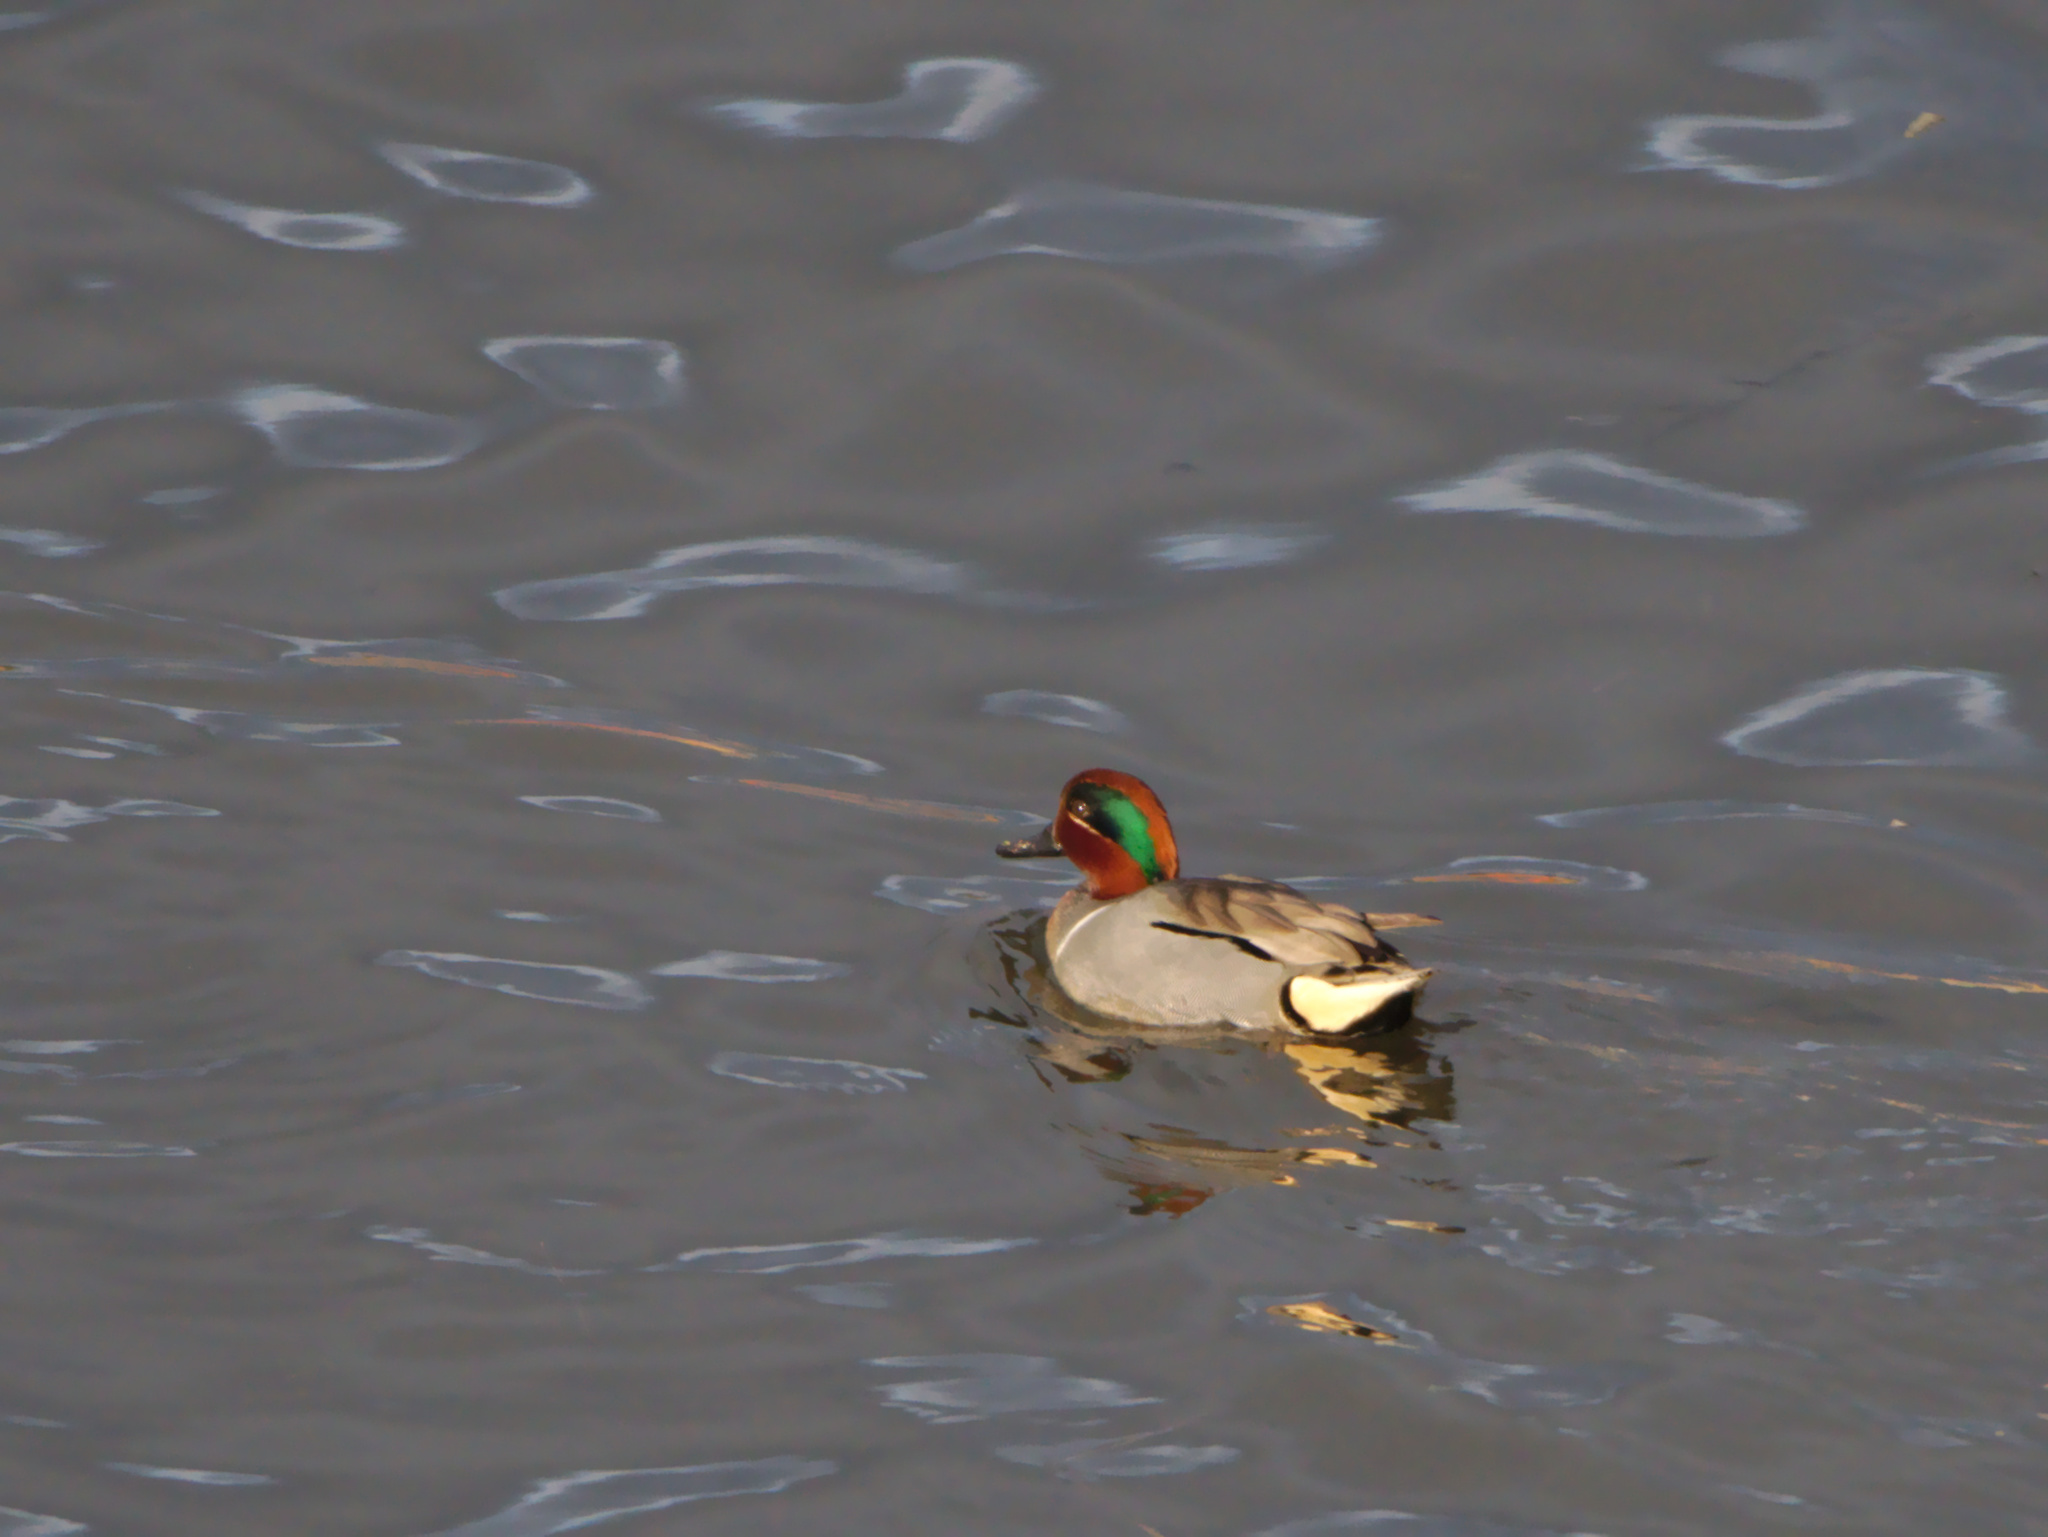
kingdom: Animalia
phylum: Chordata
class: Aves
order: Anseriformes
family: Anatidae
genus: Anas
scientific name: Anas crecca
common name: Eurasian teal
